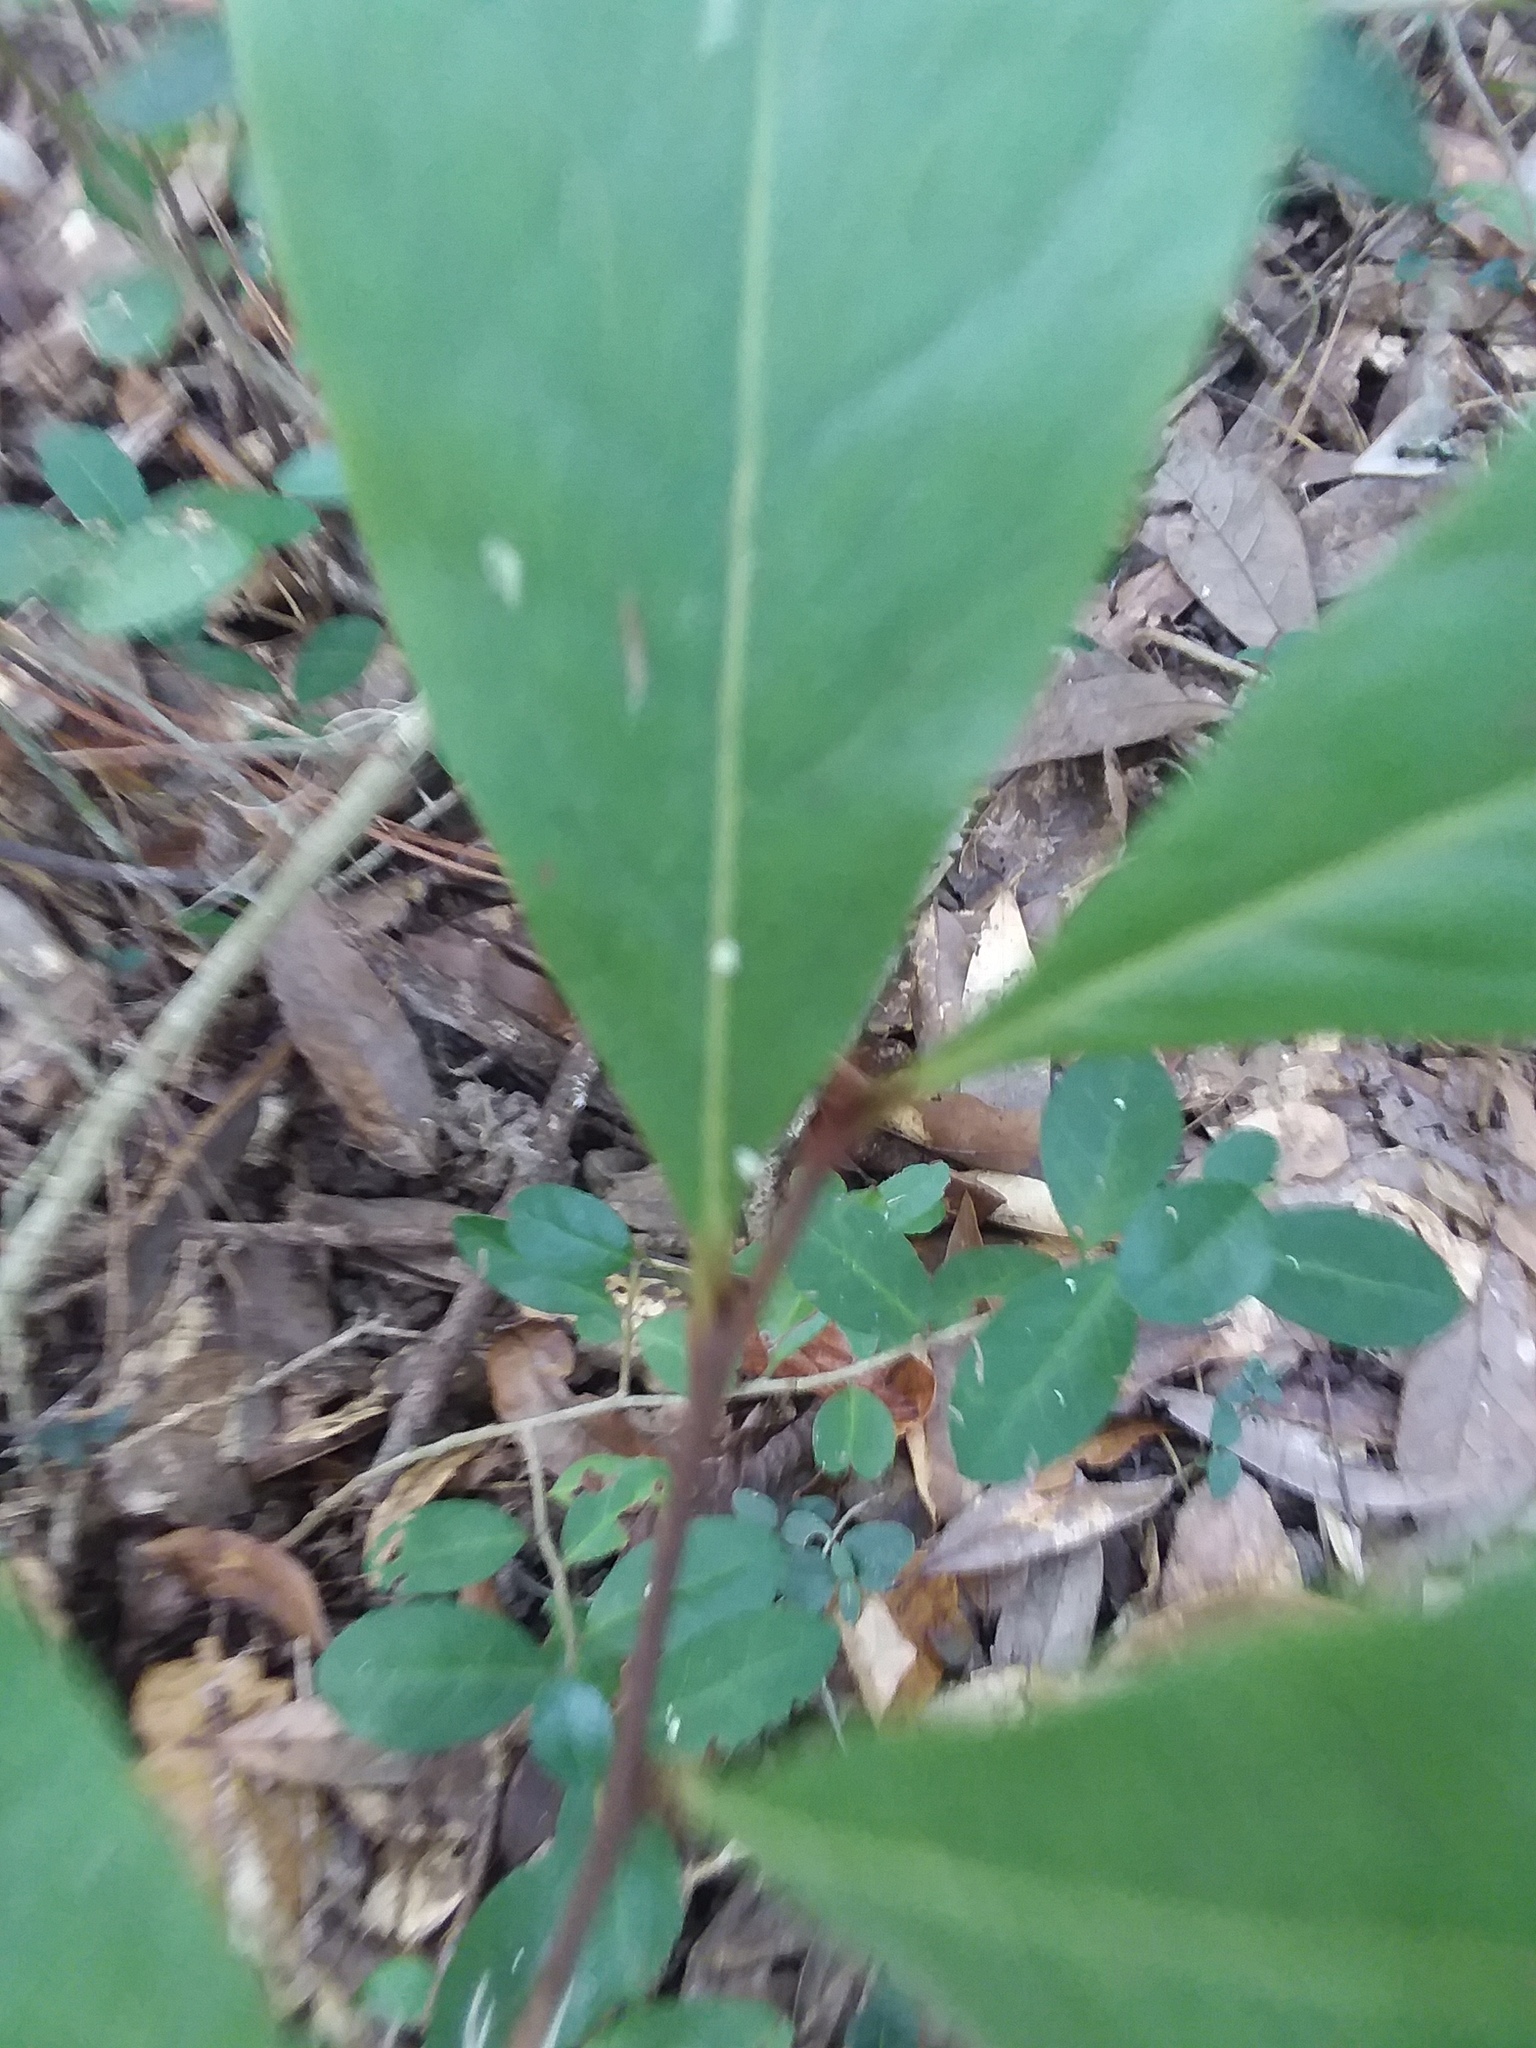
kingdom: Plantae
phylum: Tracheophyta
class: Magnoliopsida
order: Magnoliales
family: Annonaceae
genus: Asimina
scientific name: Asimina parviflora
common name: Dwarf pawpaw
